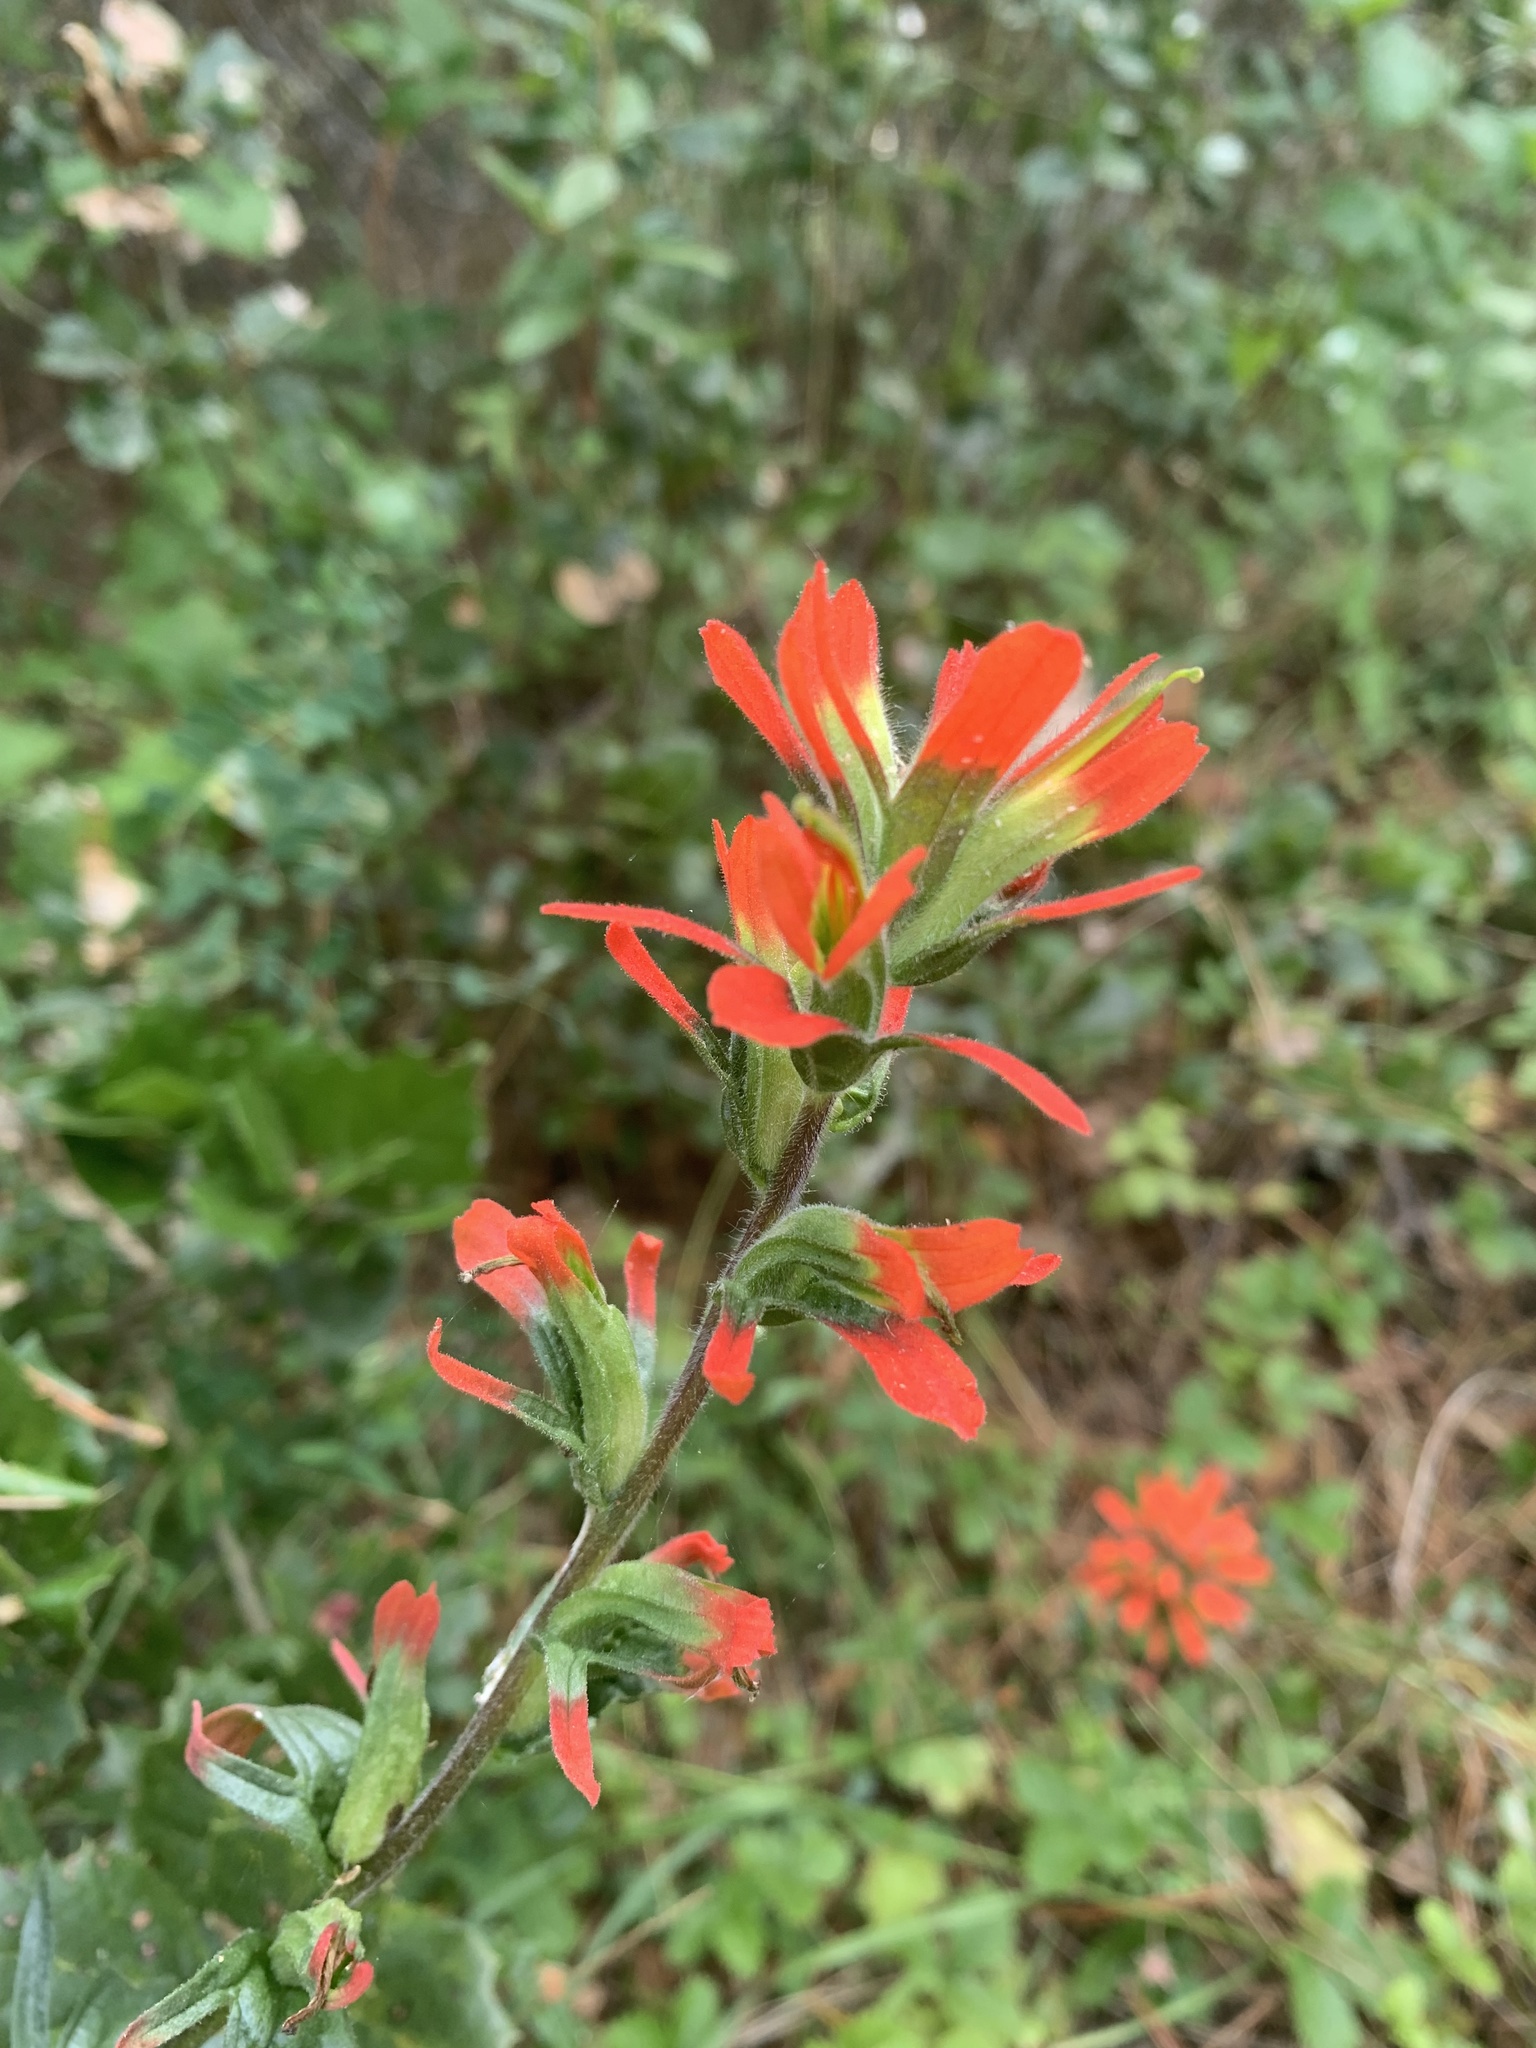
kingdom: Plantae
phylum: Tracheophyta
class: Magnoliopsida
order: Lamiales
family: Orobanchaceae
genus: Castilleja
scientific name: Castilleja affinis
